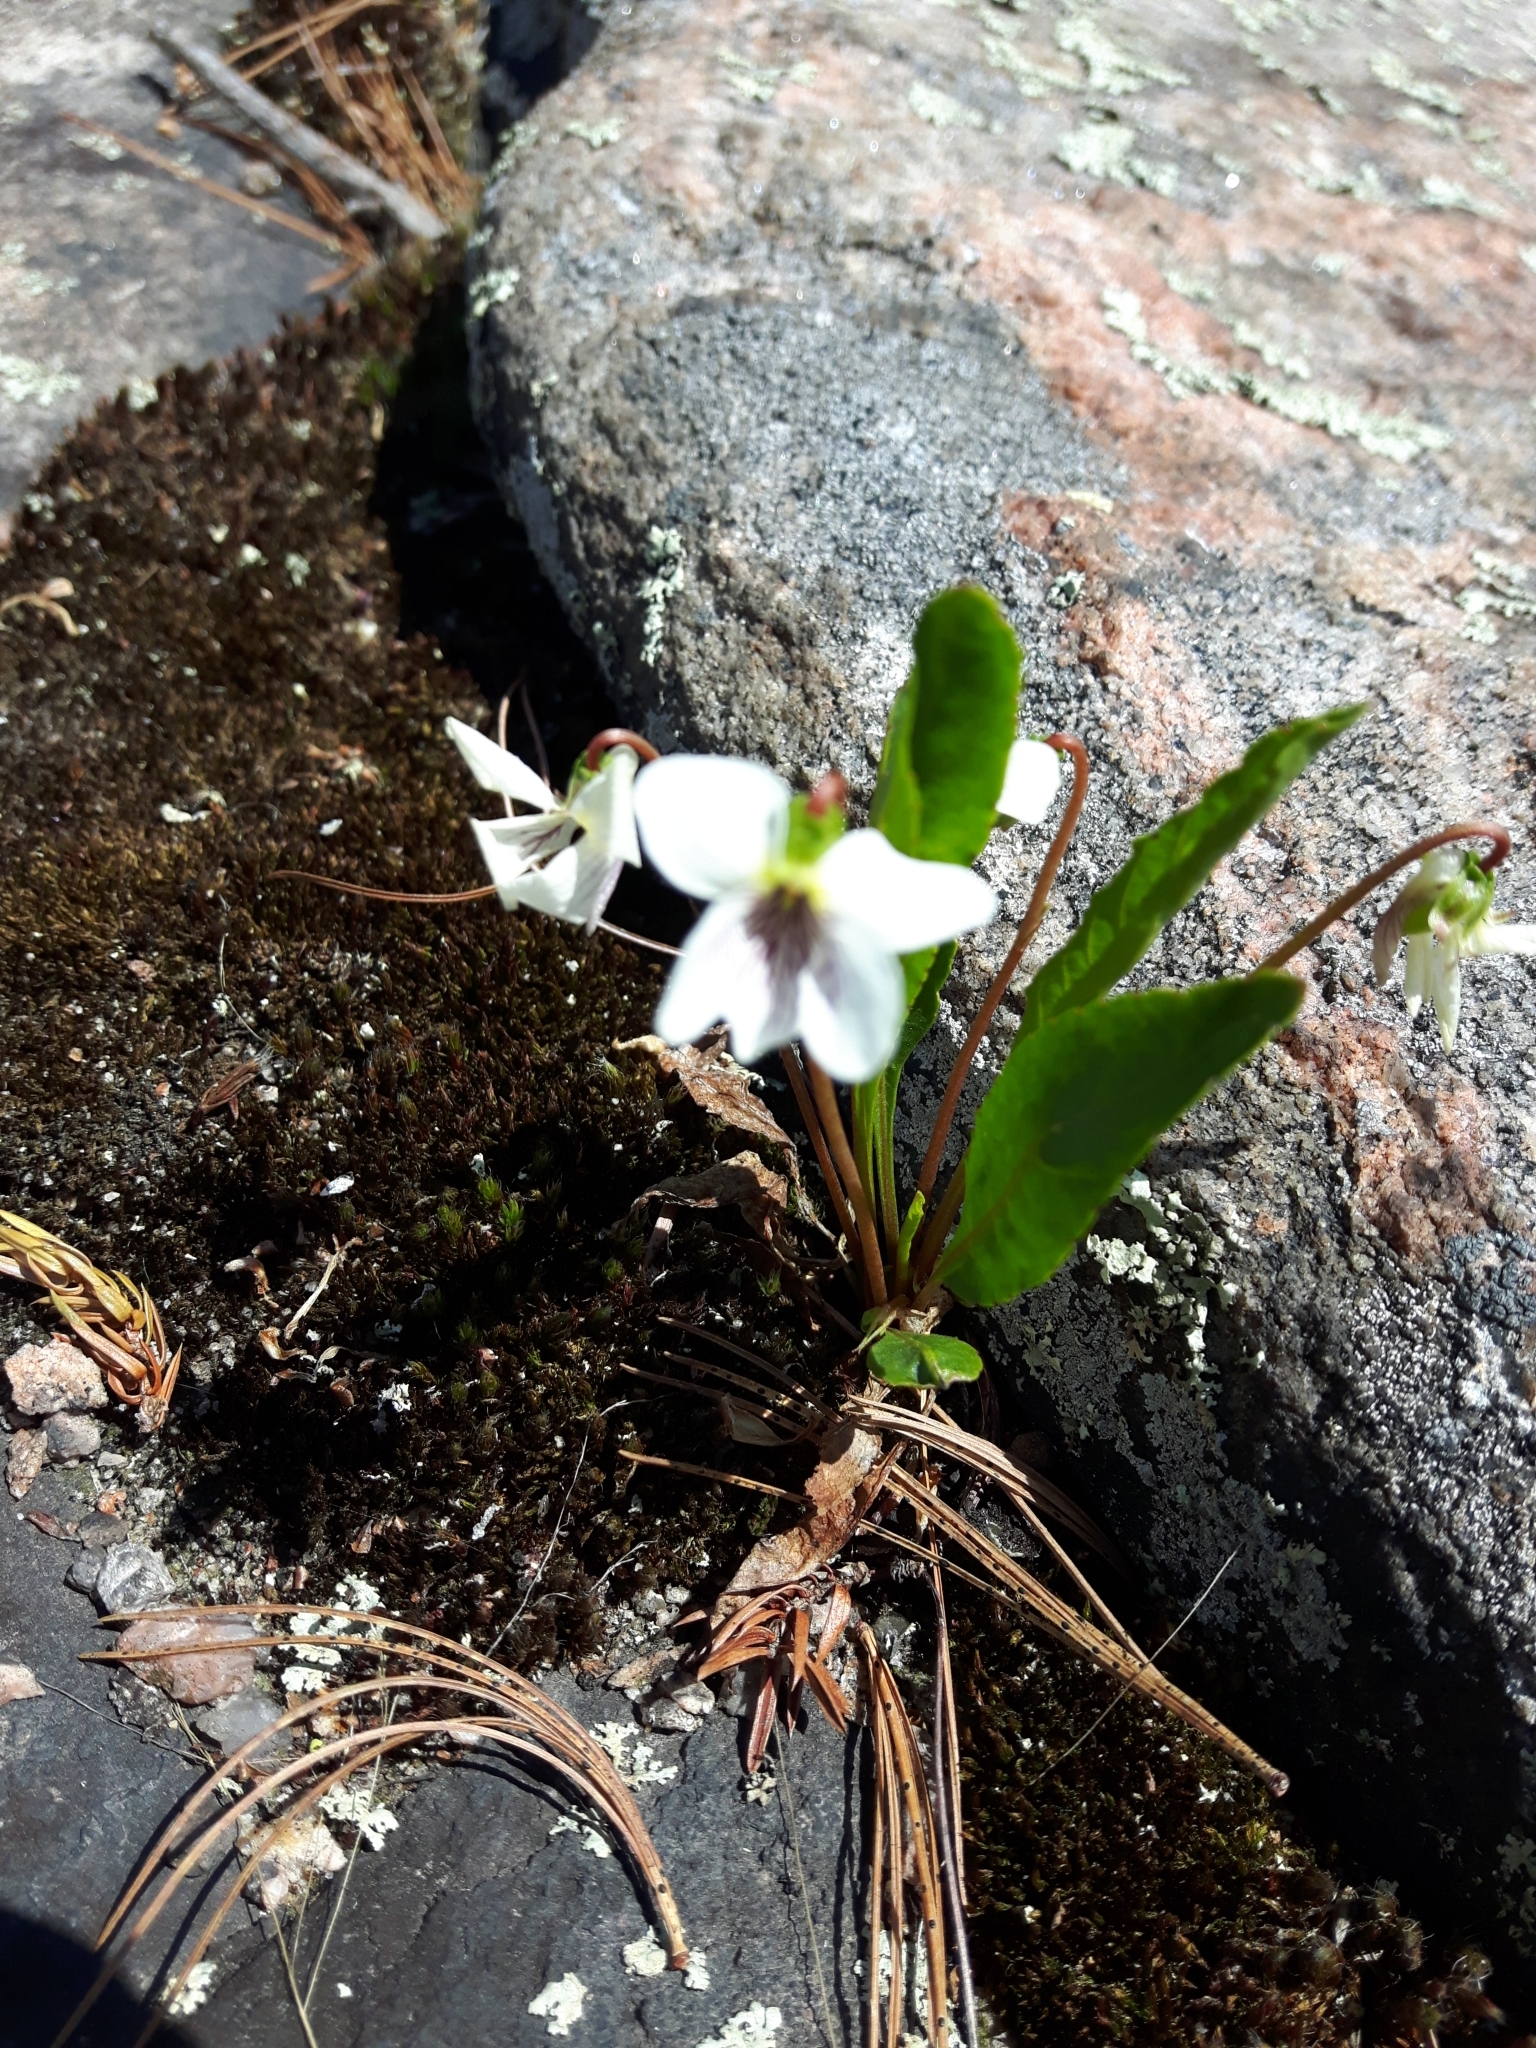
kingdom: Plantae
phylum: Tracheophyta
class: Magnoliopsida
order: Malpighiales
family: Violaceae
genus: Viola
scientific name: Viola lanceolata
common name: Bog white violet
